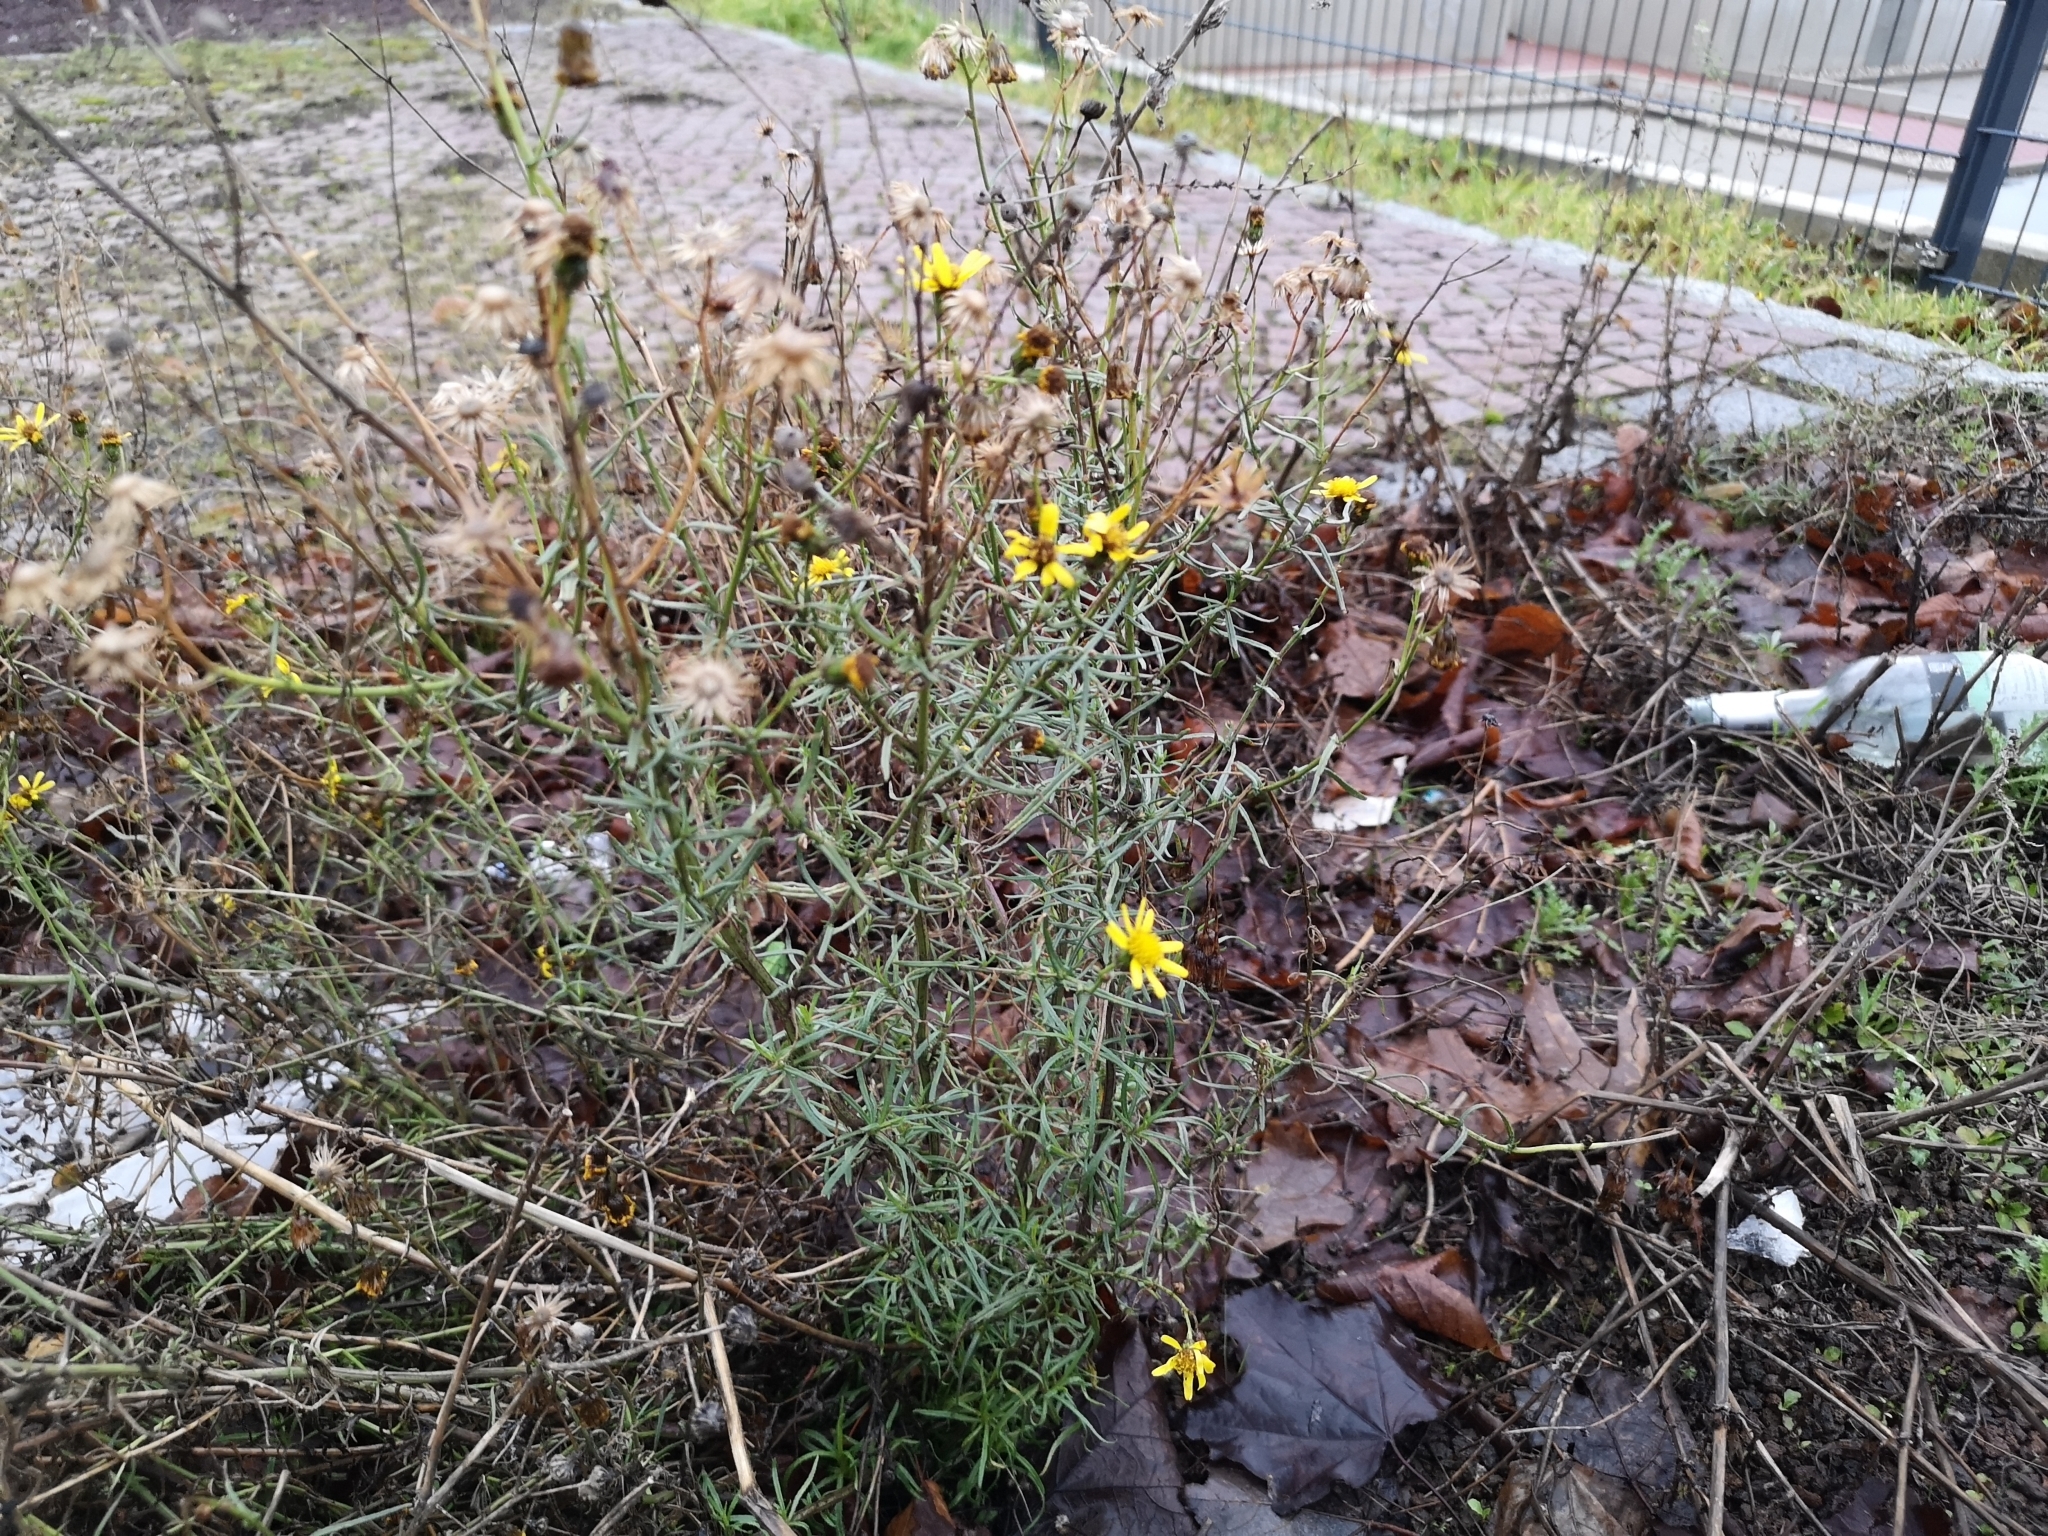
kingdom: Plantae
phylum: Tracheophyta
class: Magnoliopsida
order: Asterales
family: Asteraceae
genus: Senecio
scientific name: Senecio inaequidens
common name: Narrow-leaved ragwort
